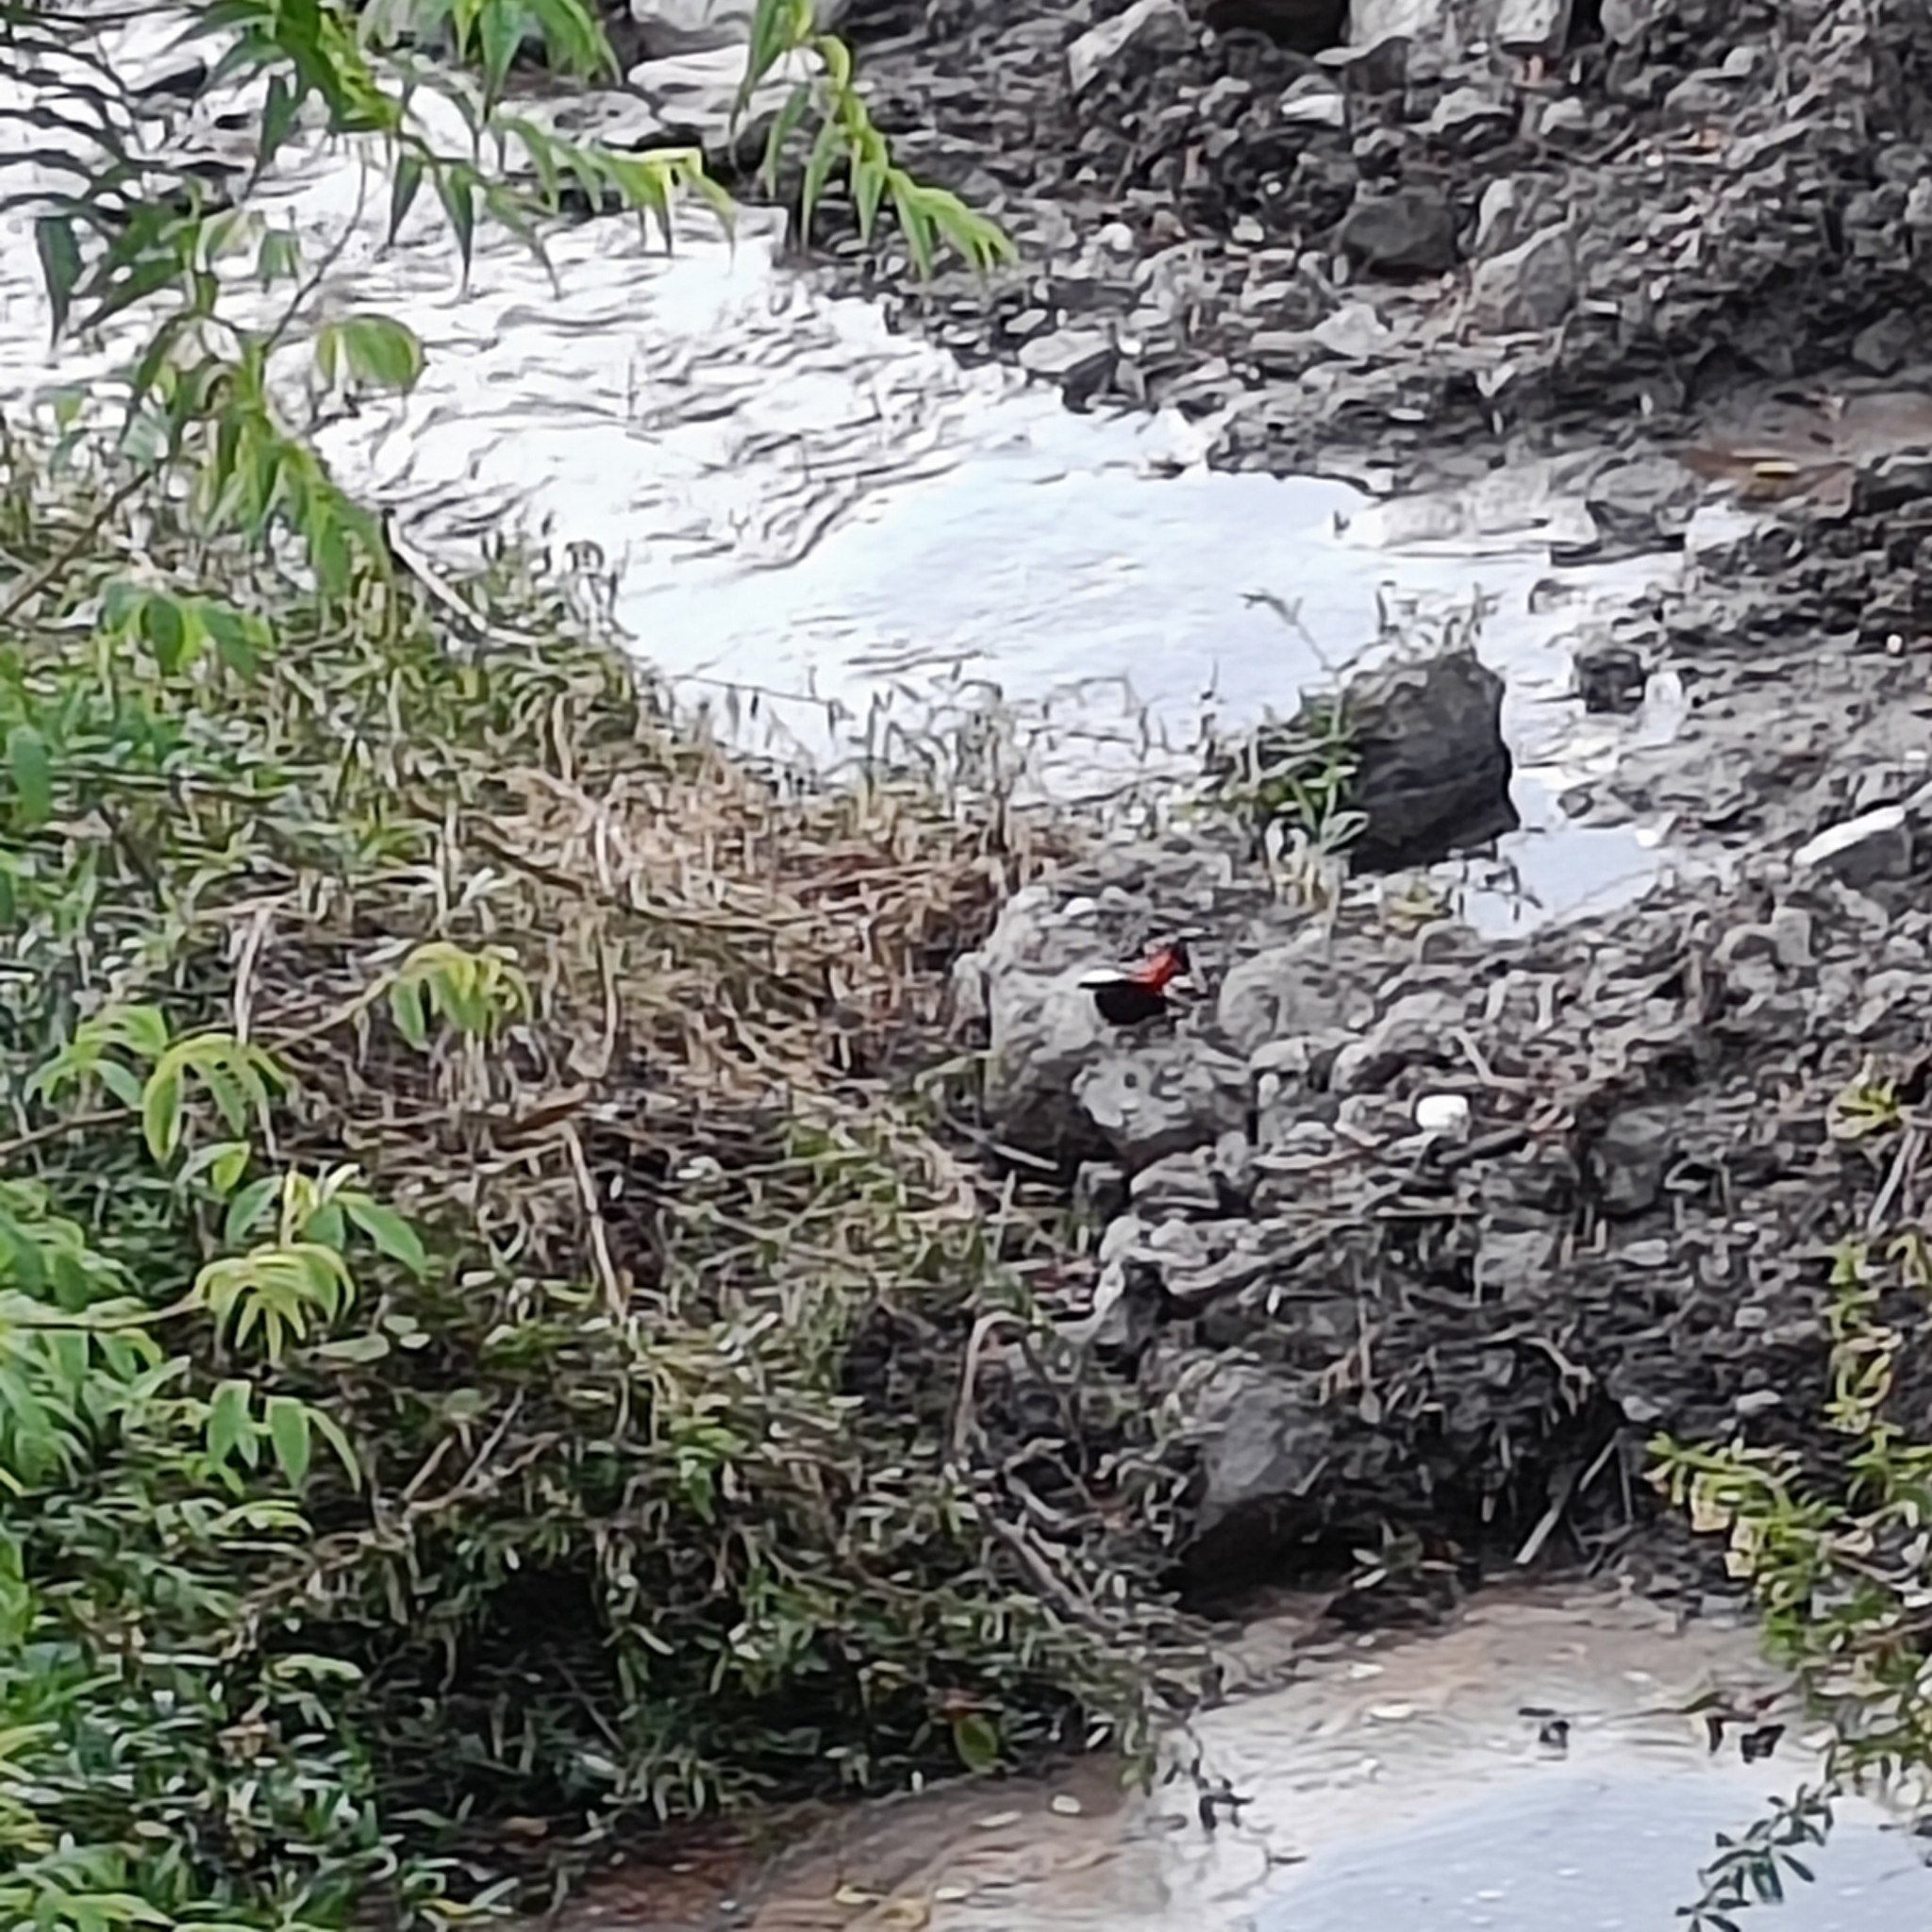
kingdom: Animalia
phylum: Chordata
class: Aves
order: Passeriformes
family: Muscicapidae
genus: Chaimarrornis
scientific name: Chaimarrornis leucocephalus
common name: White-capped redstart
